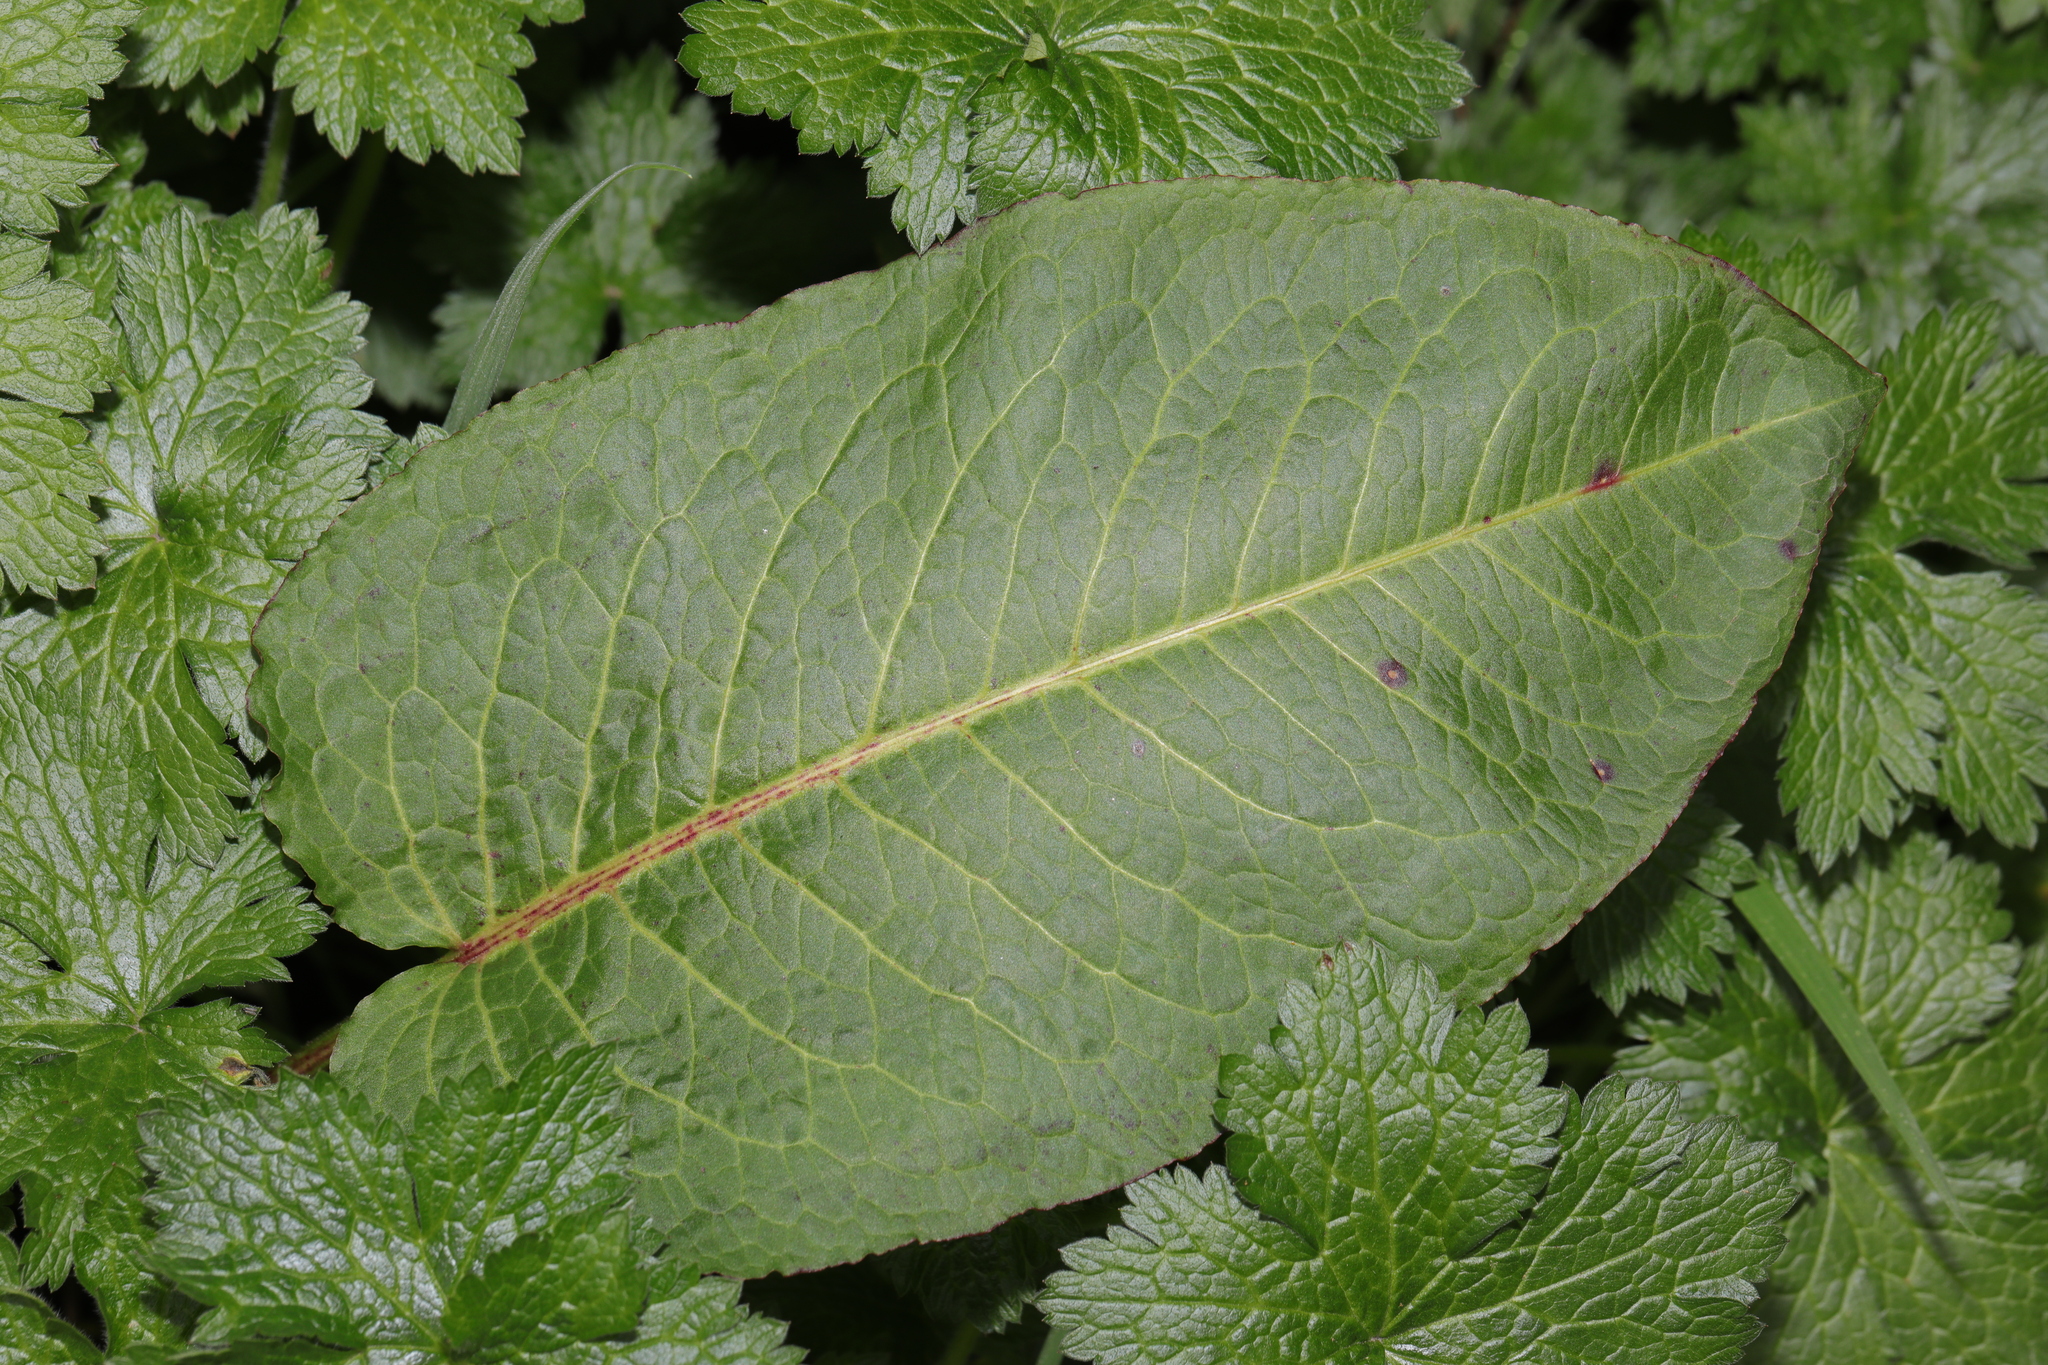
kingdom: Plantae
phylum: Tracheophyta
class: Magnoliopsida
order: Caryophyllales
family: Polygonaceae
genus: Rumex
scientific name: Rumex obtusifolius
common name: Bitter dock
